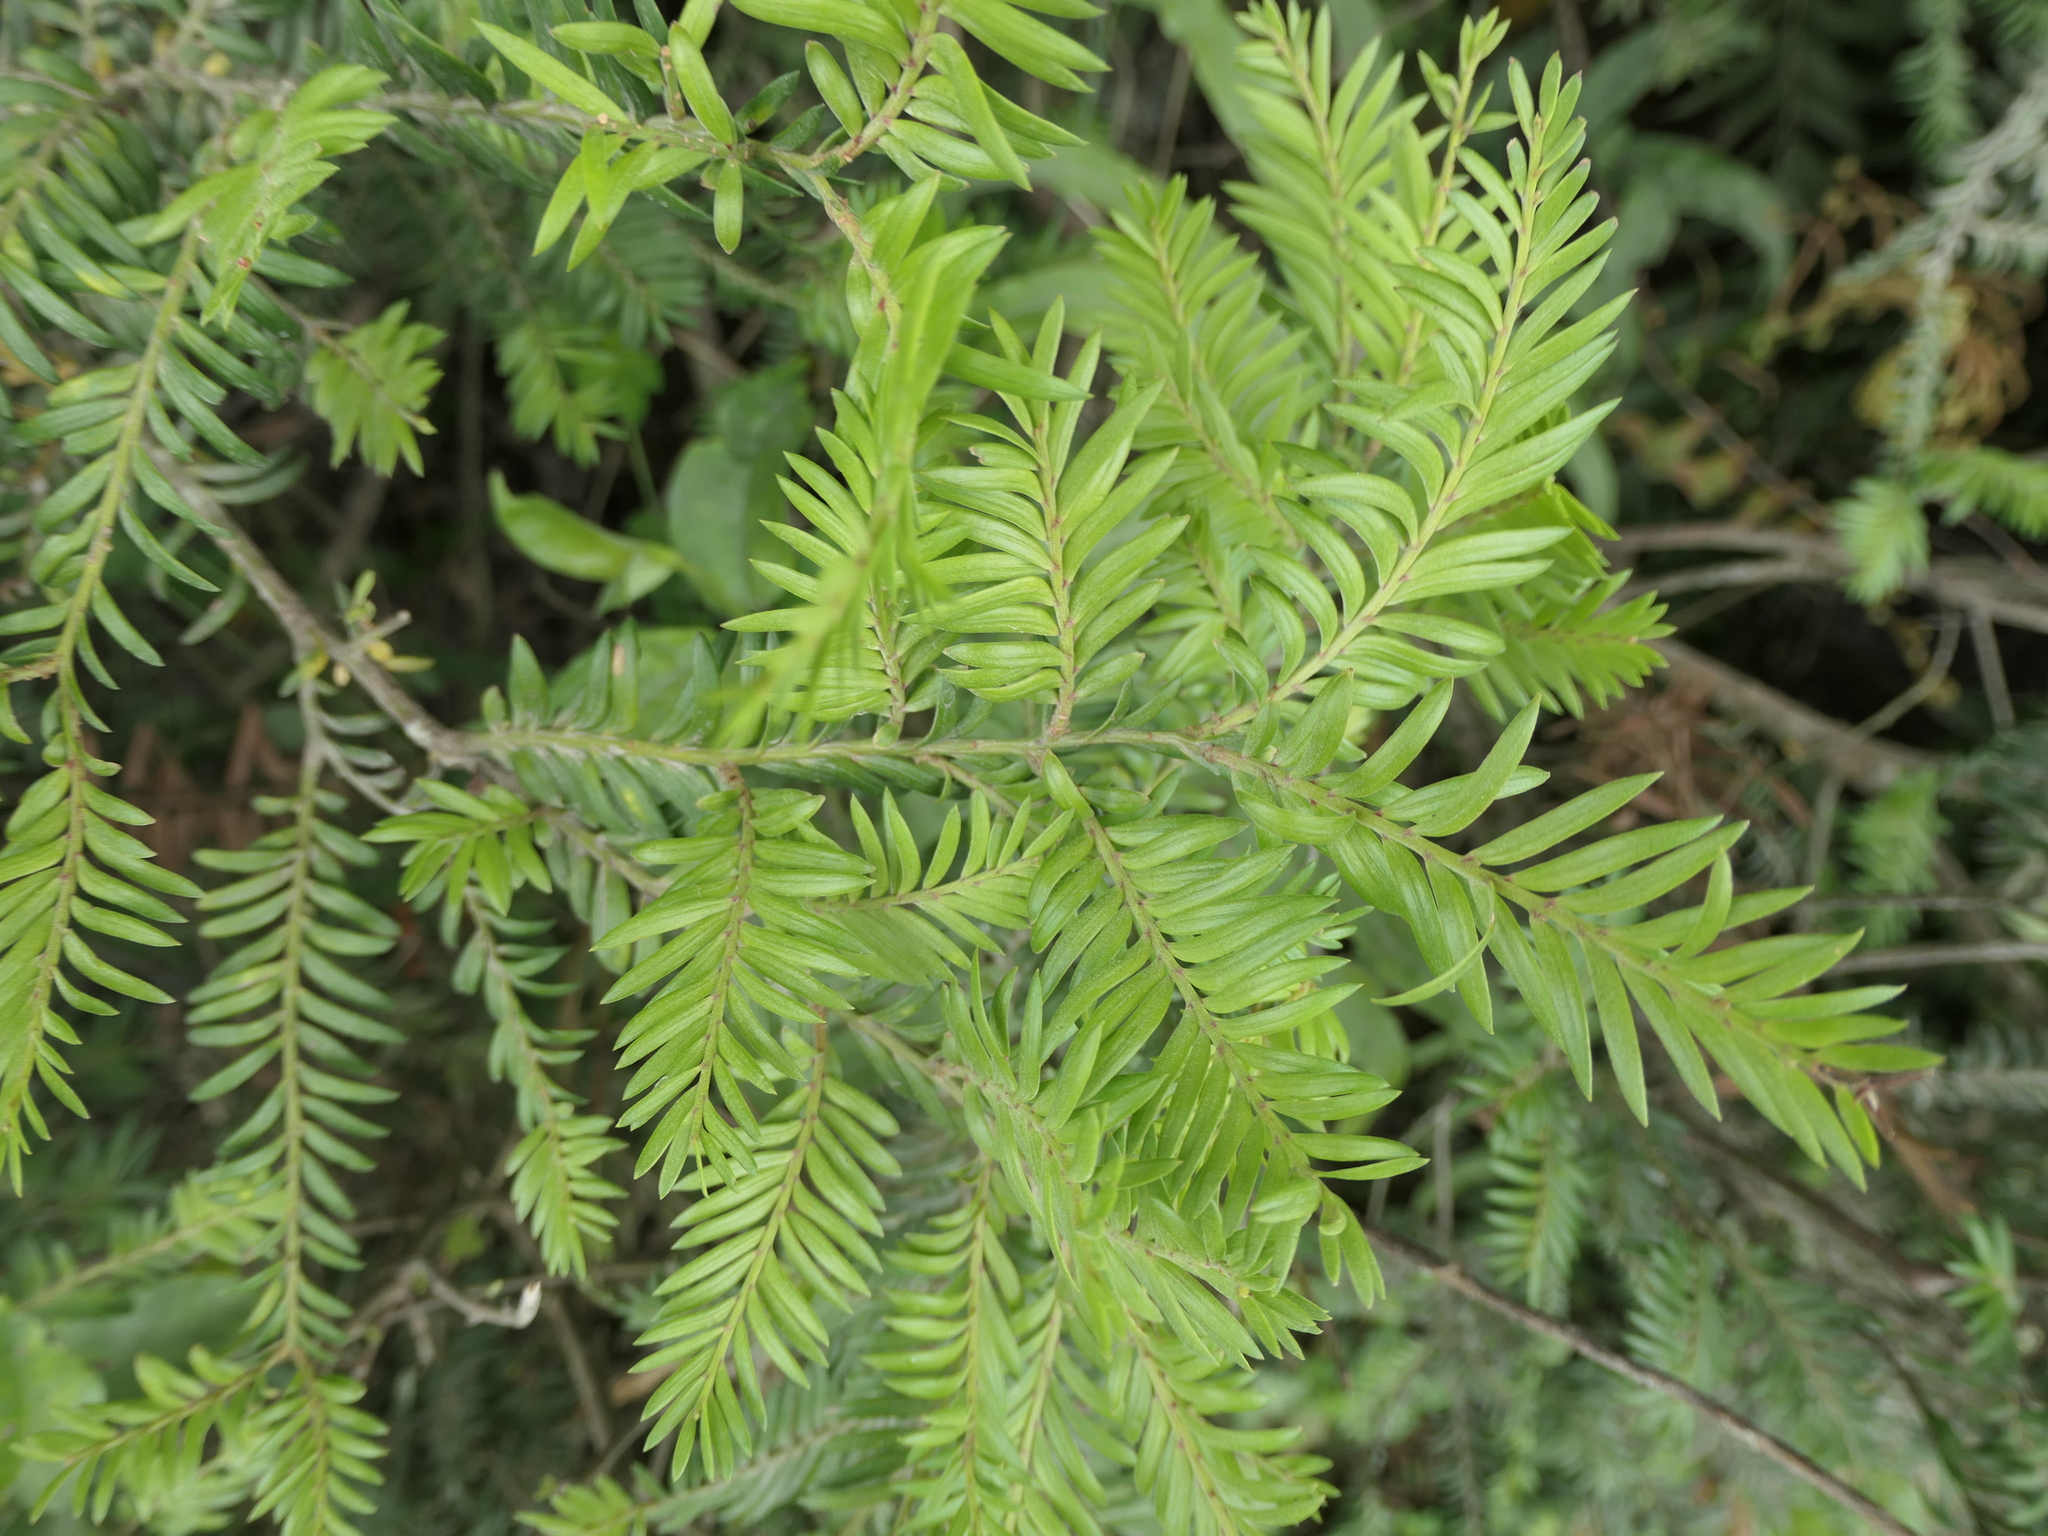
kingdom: Plantae
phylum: Tracheophyta
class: Pinopsida
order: Pinales
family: Podocarpaceae
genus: Prumnopitys
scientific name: Prumnopitys ferruginea
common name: Brown pine
